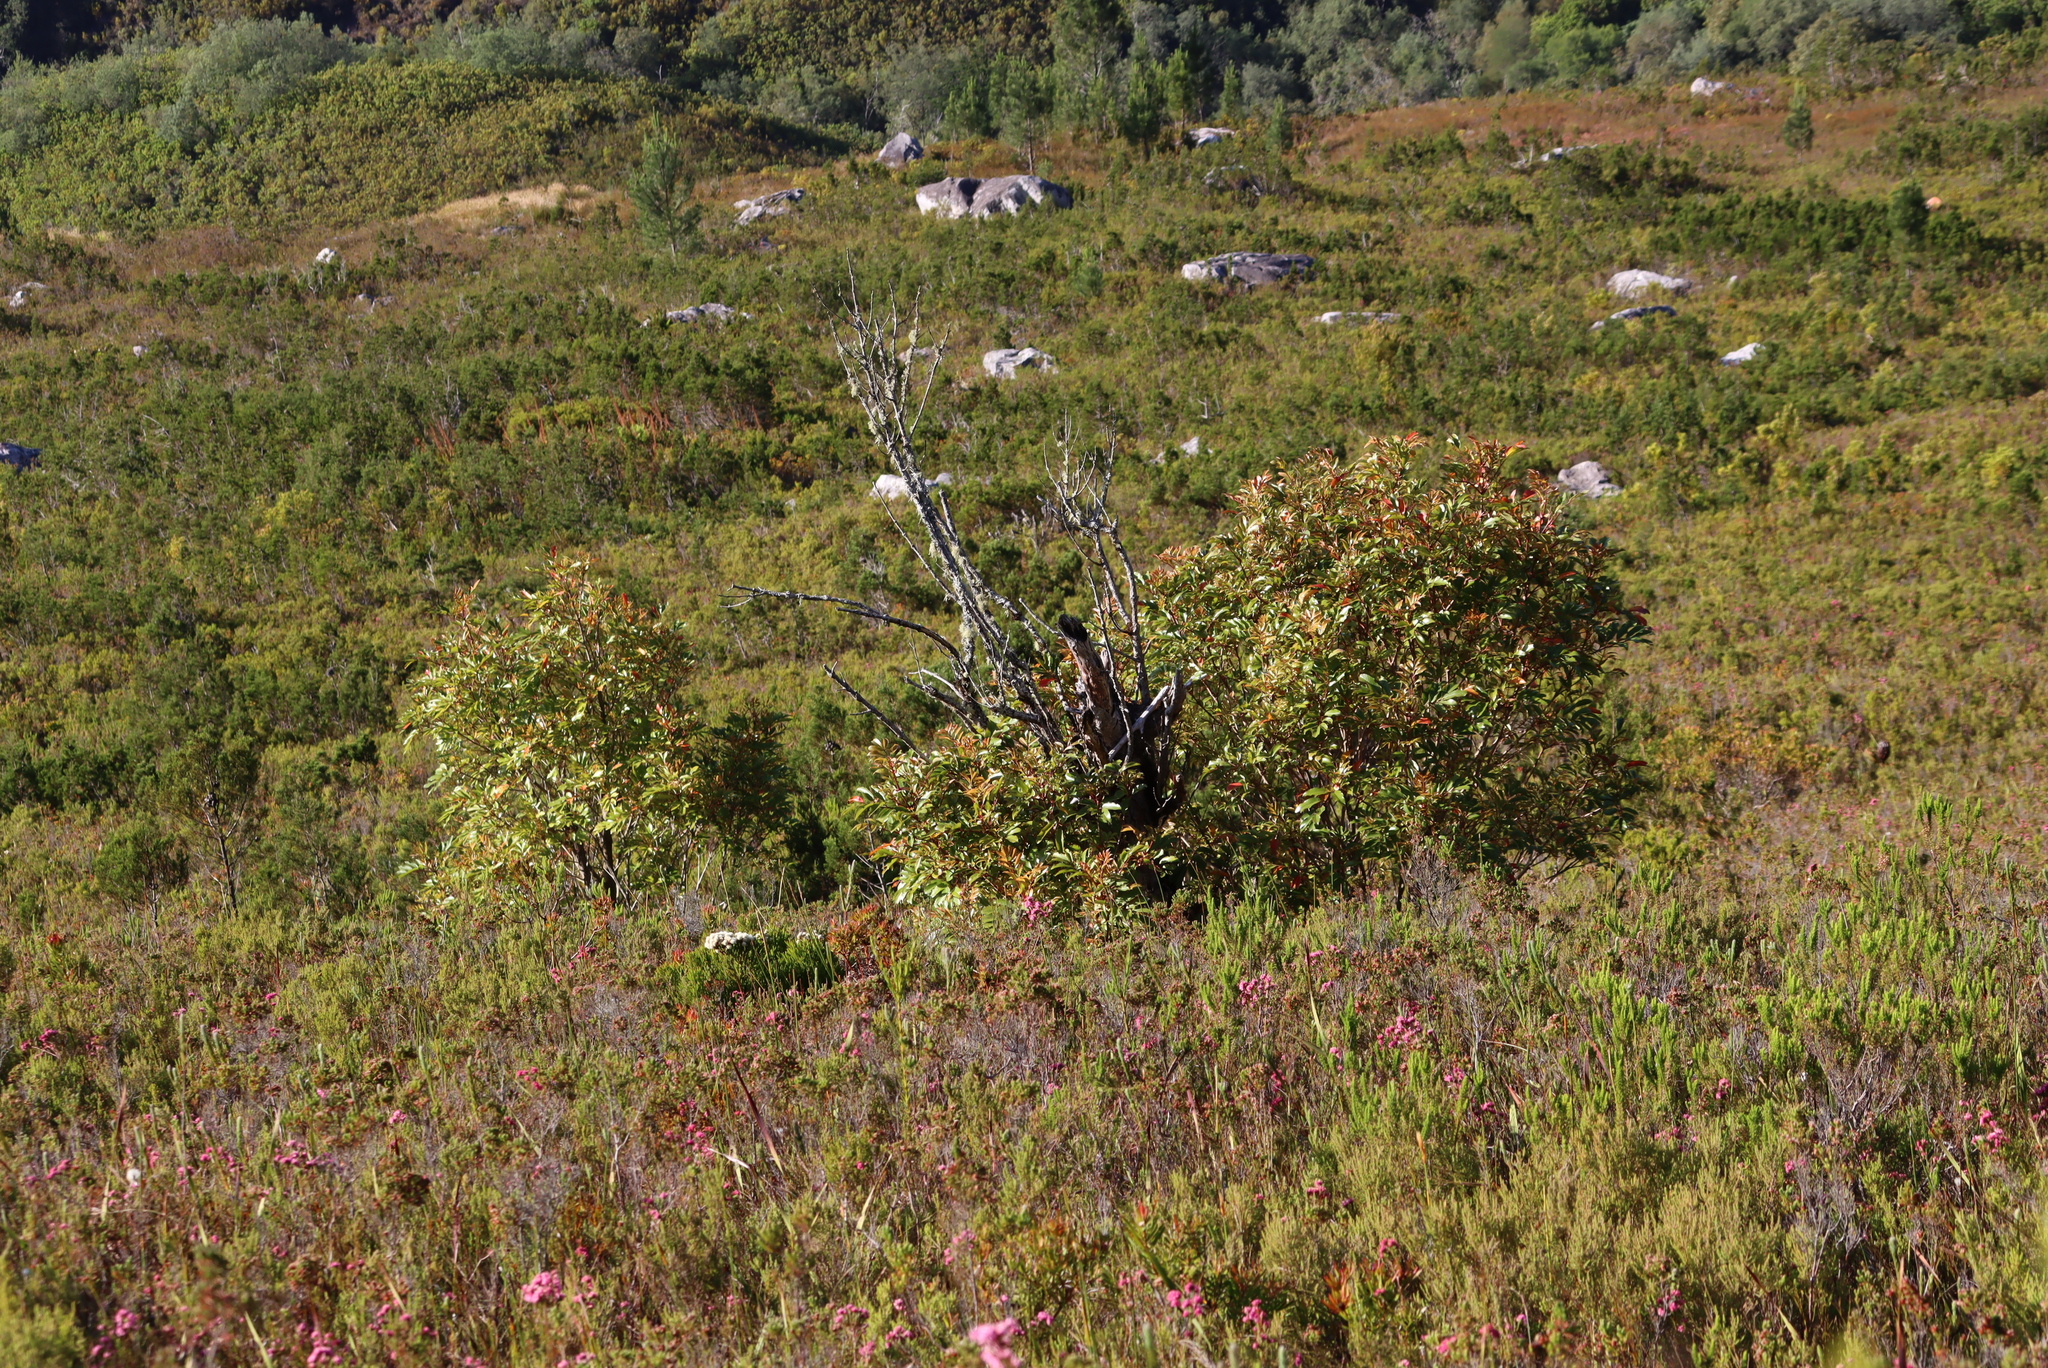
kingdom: Plantae
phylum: Tracheophyta
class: Magnoliopsida
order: Oxalidales
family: Cunoniaceae
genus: Cunonia
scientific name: Cunonia capensis
